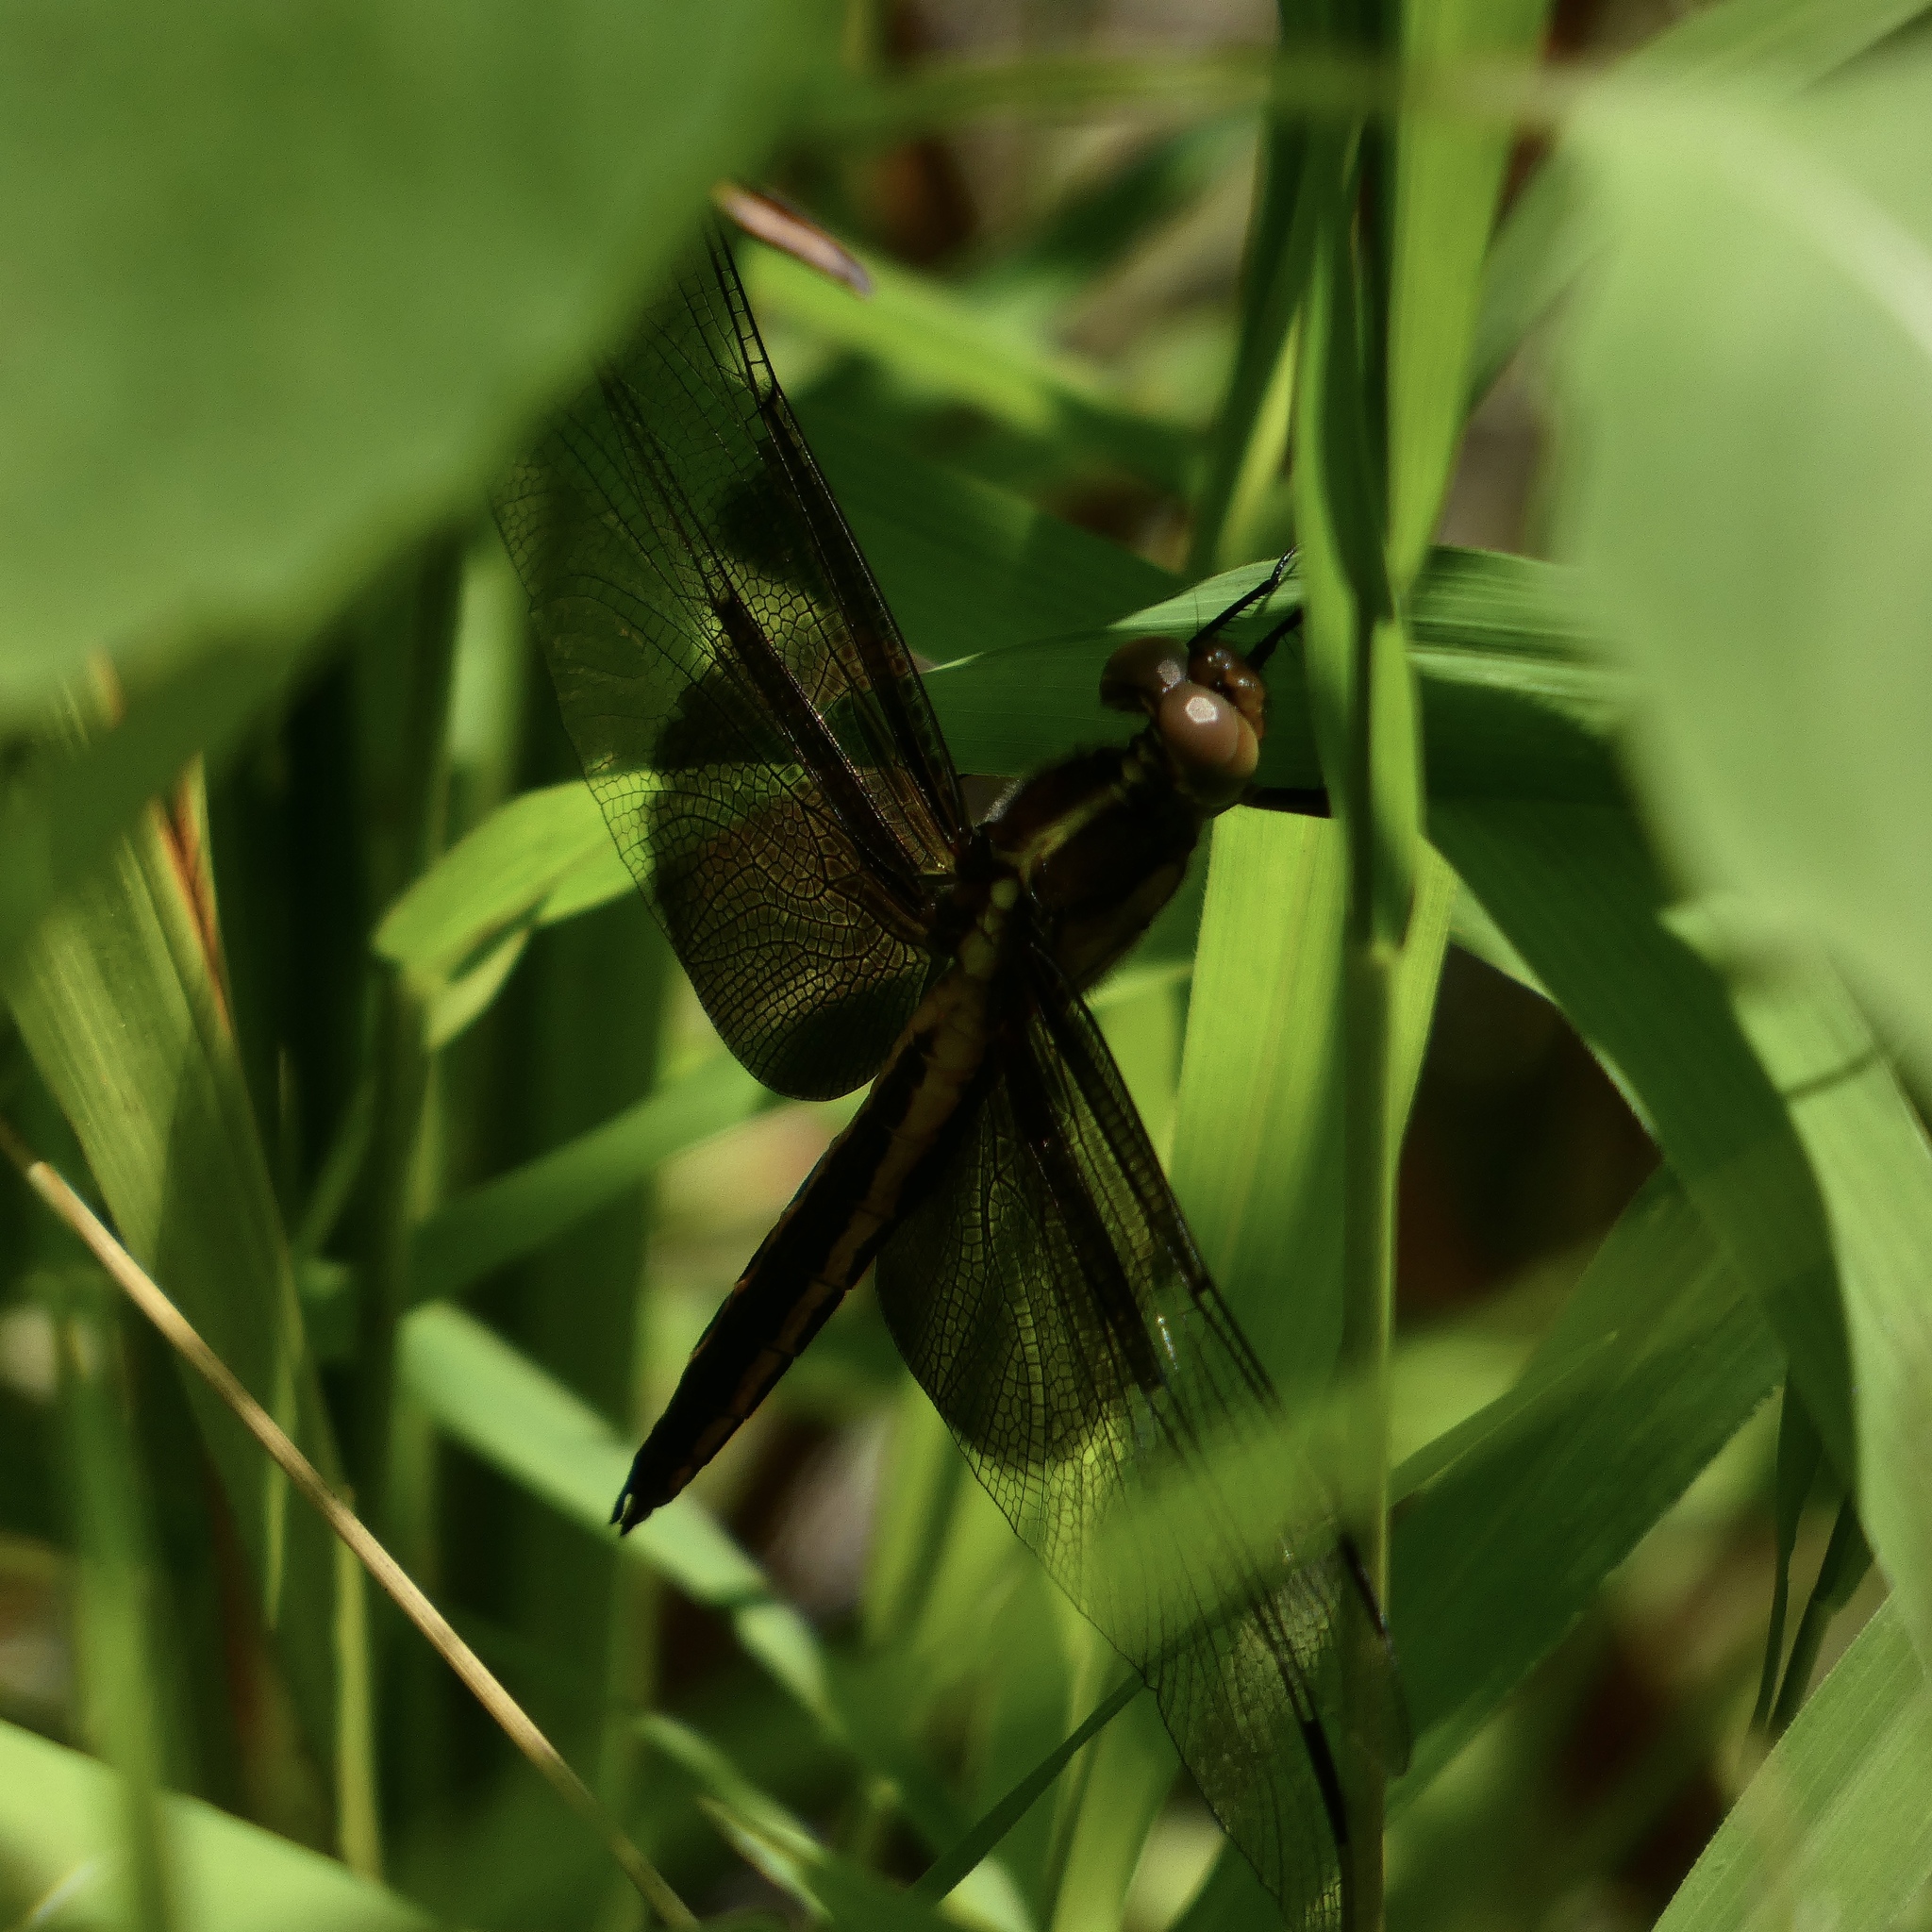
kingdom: Animalia
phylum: Arthropoda
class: Insecta
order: Odonata
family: Libellulidae
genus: Libellula
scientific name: Libellula luctuosa
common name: Widow skimmer
